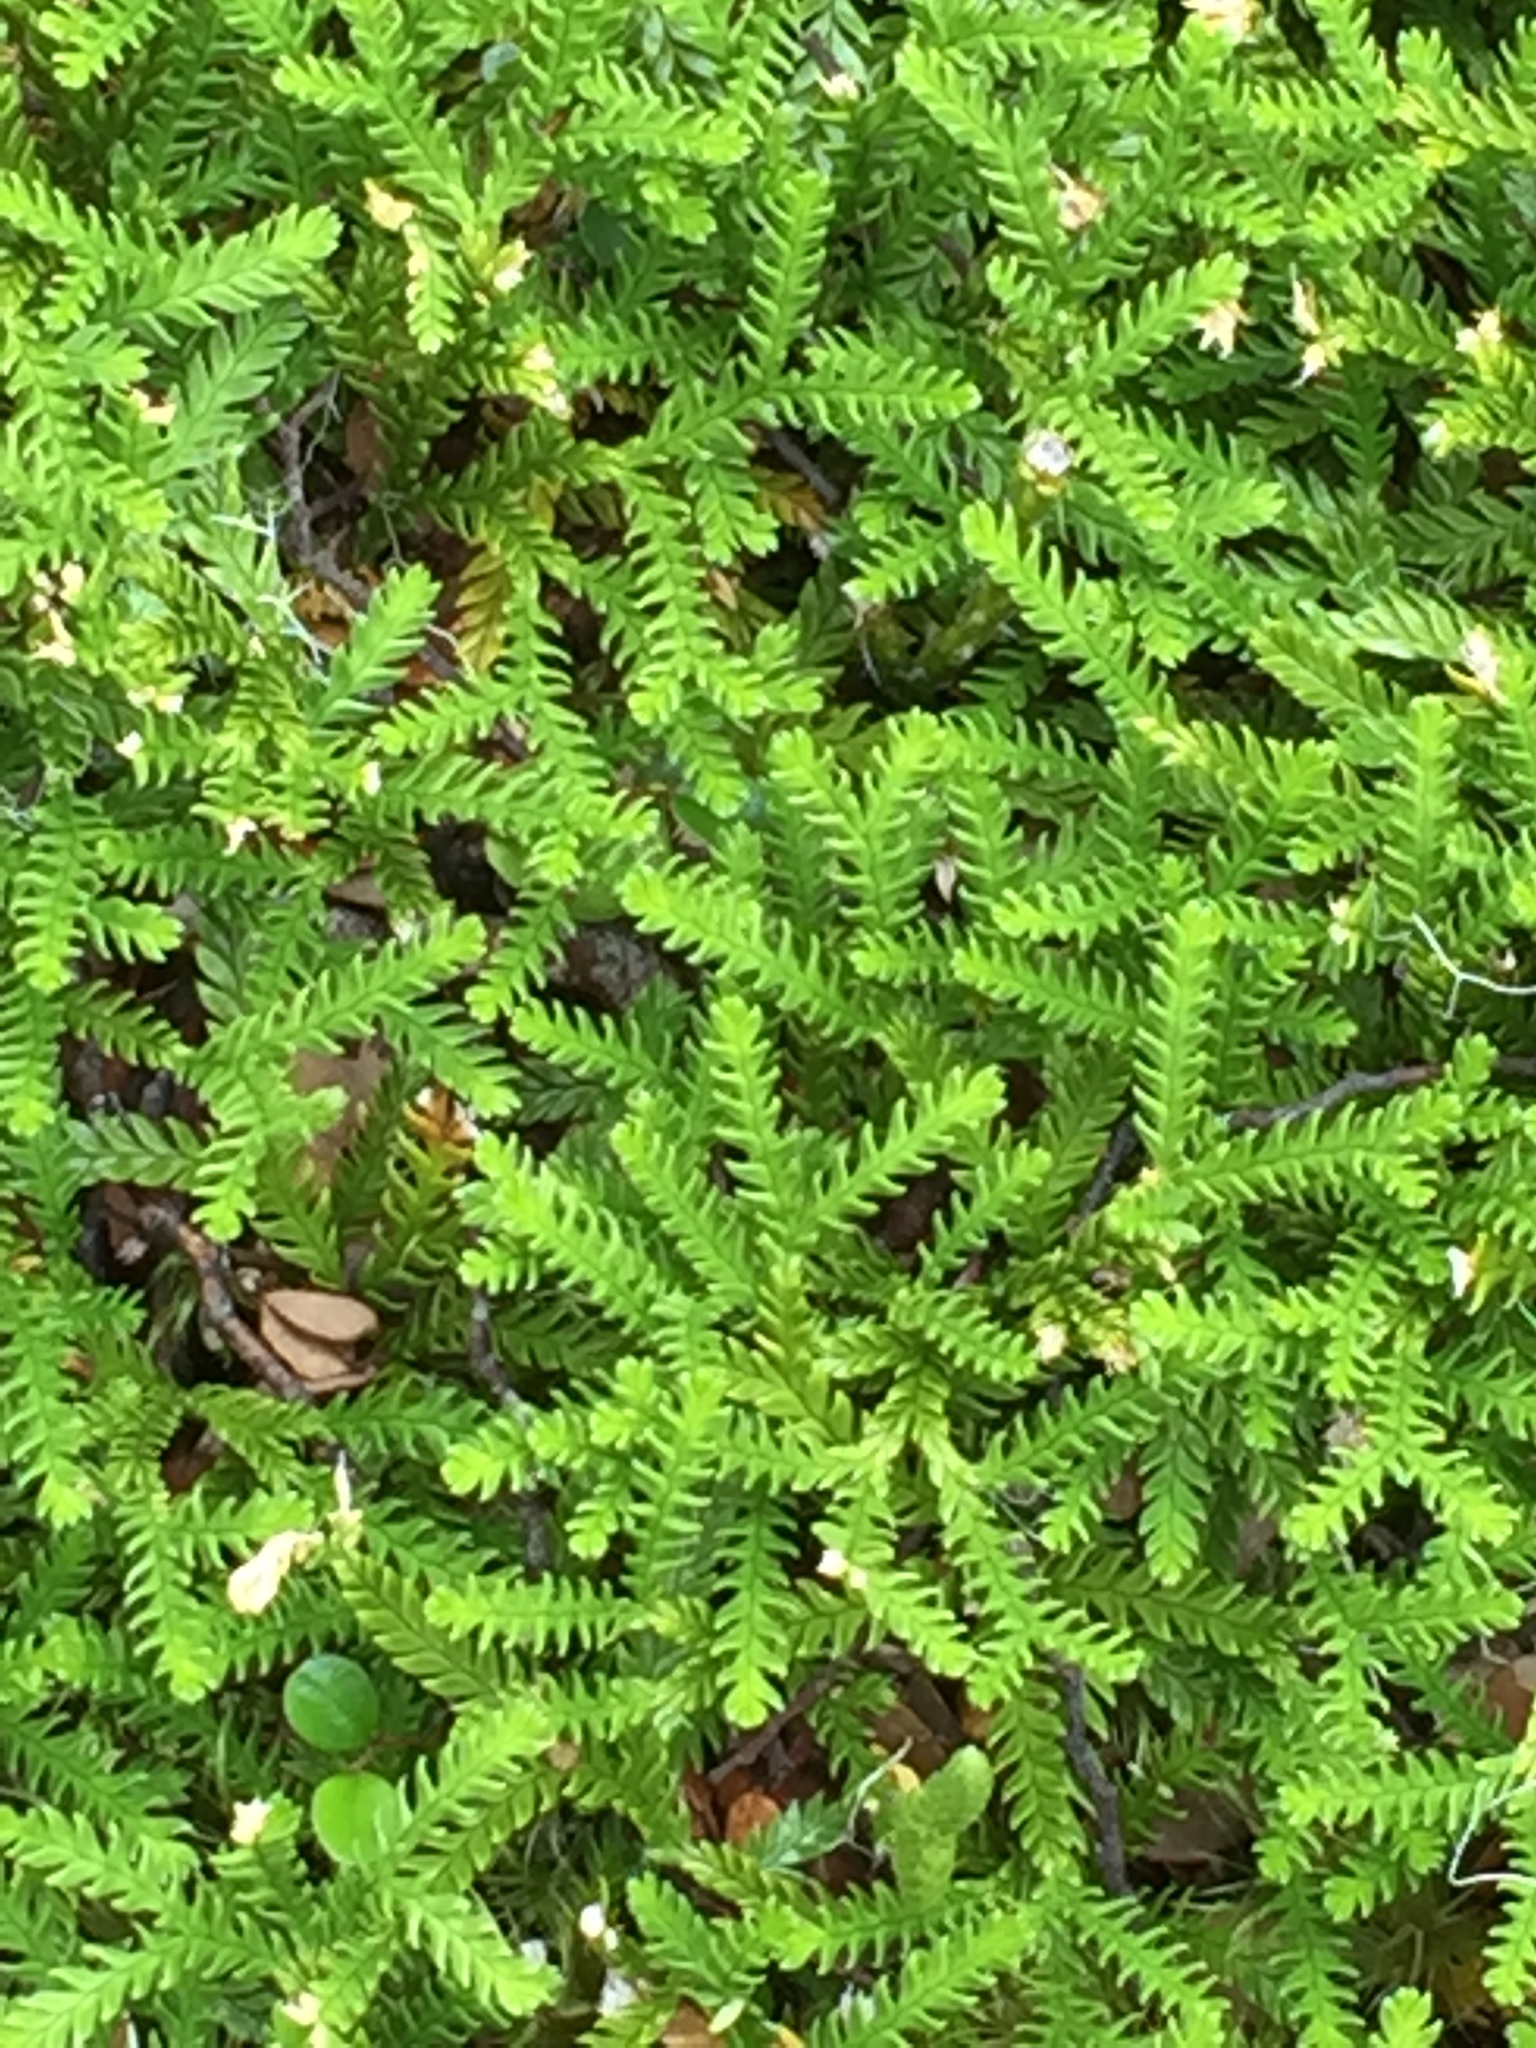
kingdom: Plantae
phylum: Tracheophyta
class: Lycopodiopsida
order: Lycopodiales
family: Lycopodiaceae
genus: Diphasium
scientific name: Diphasium scariosum
